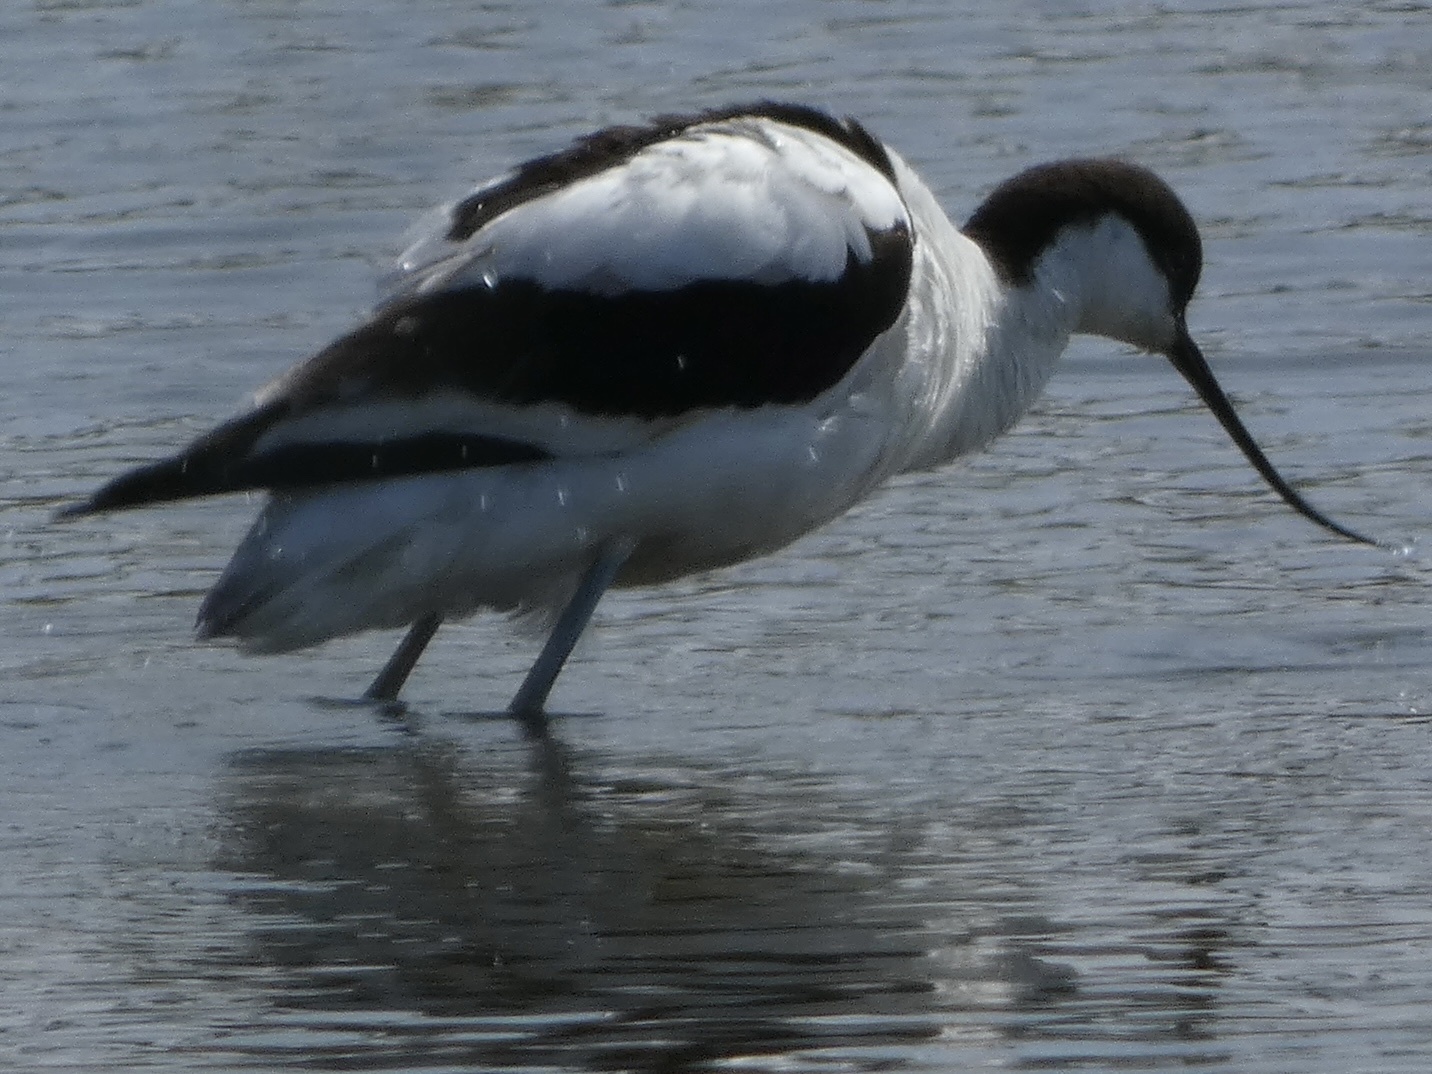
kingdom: Animalia
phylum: Chordata
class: Aves
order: Charadriiformes
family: Recurvirostridae
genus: Recurvirostra
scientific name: Recurvirostra avosetta
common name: Pied avocet
